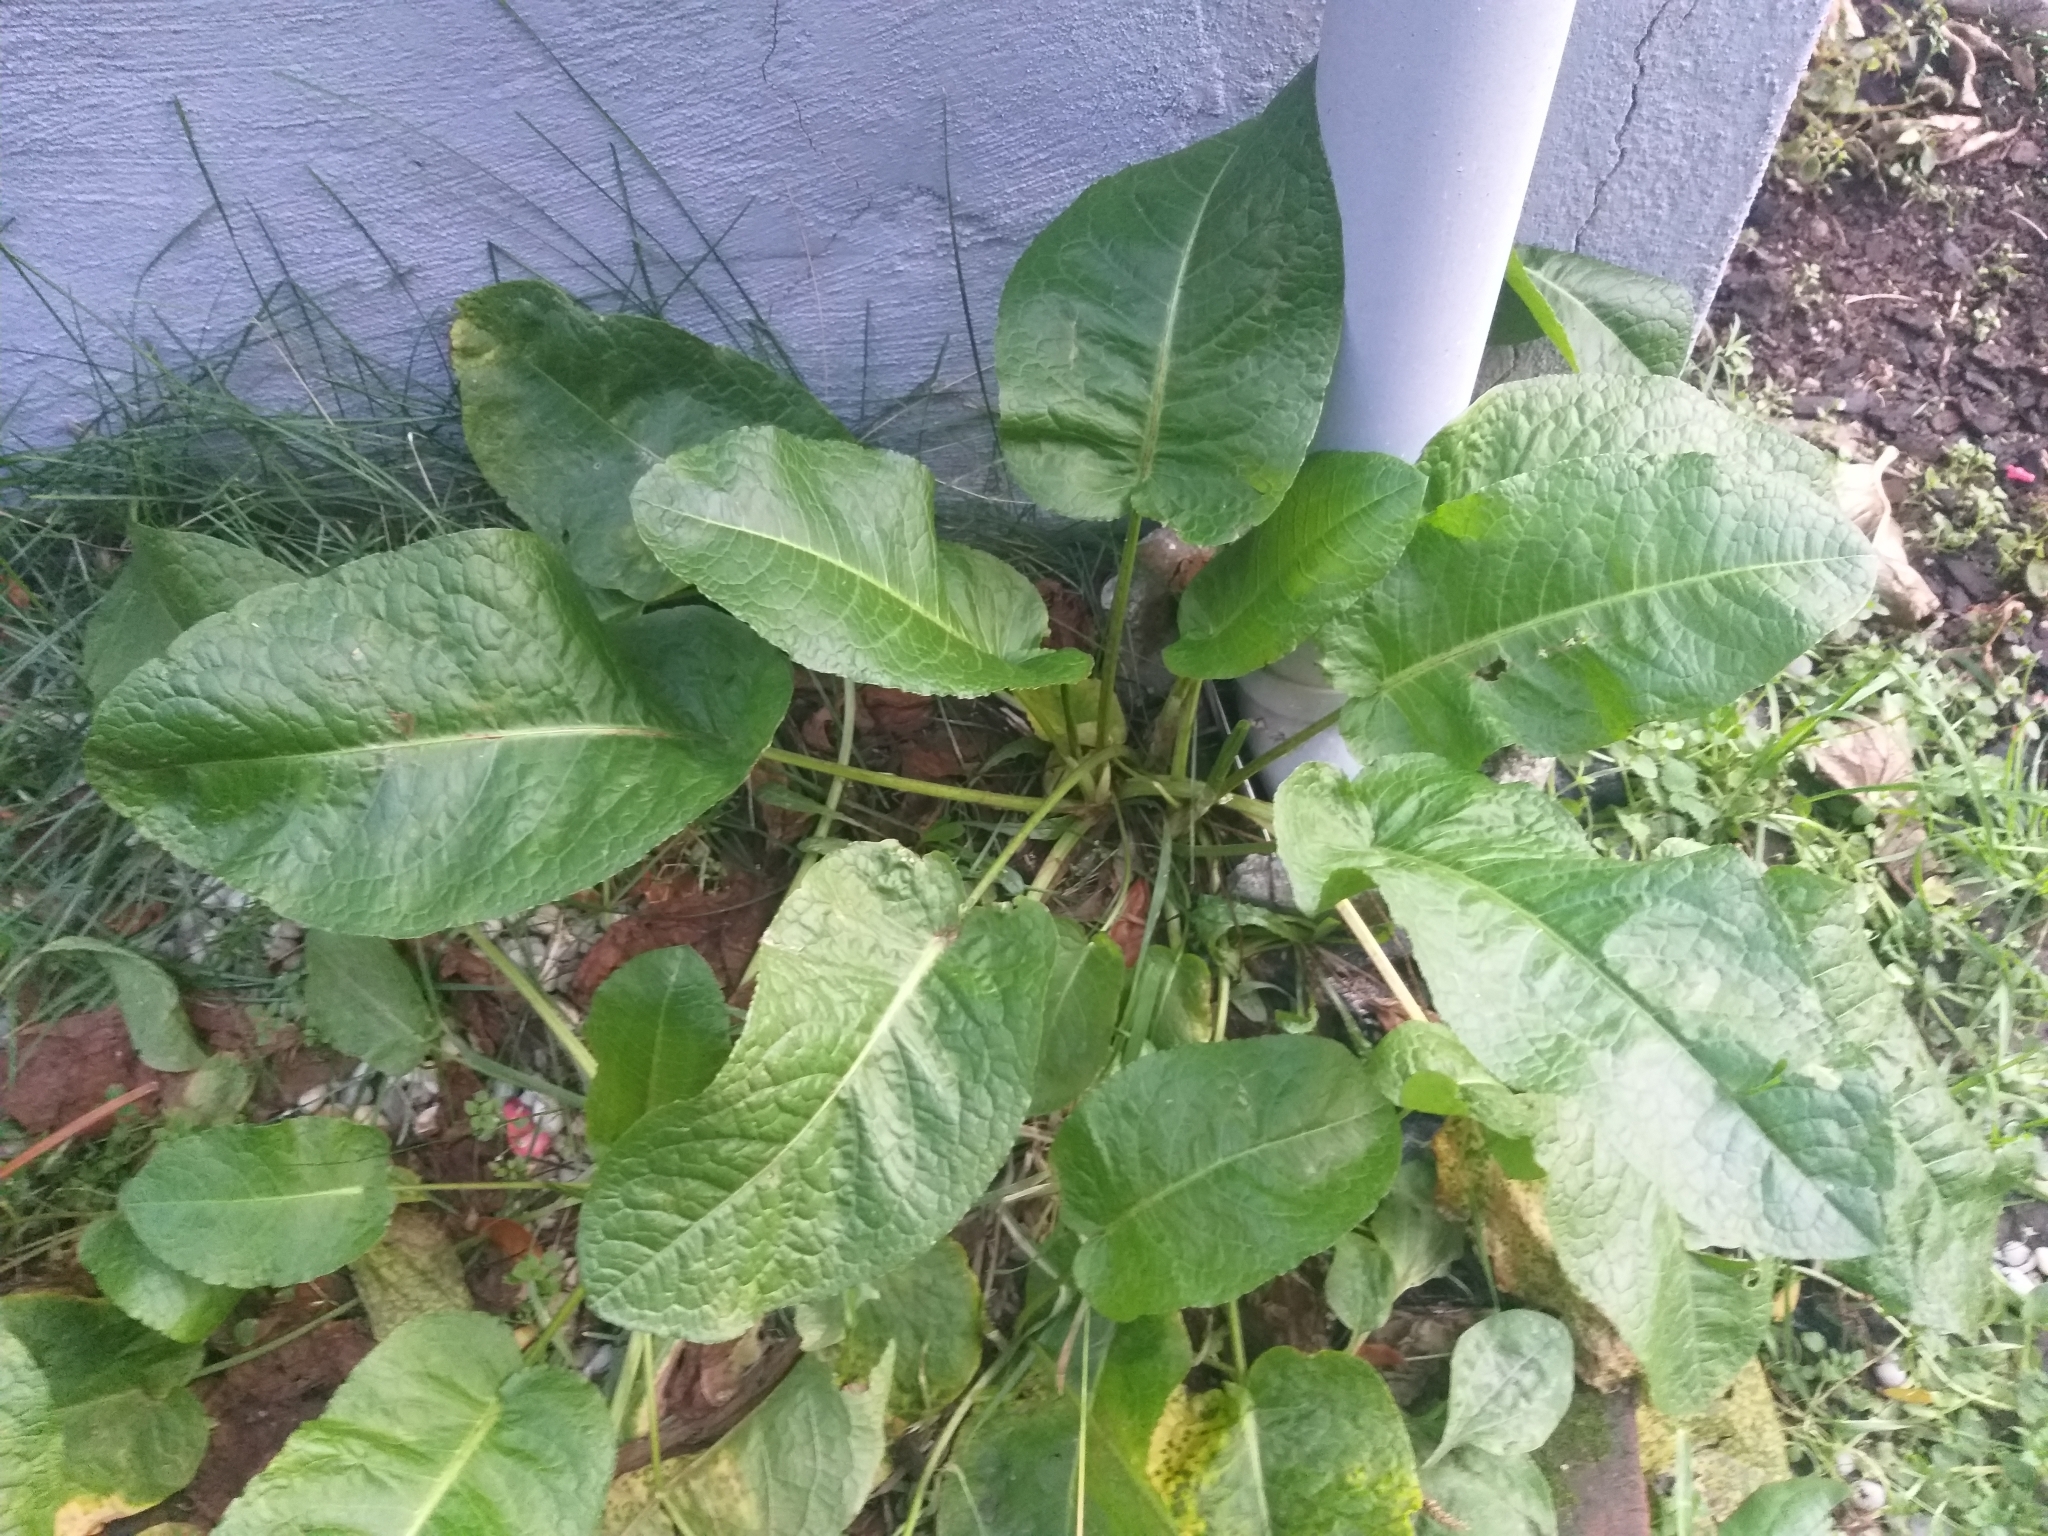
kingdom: Plantae
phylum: Tracheophyta
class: Magnoliopsida
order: Caryophyllales
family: Polygonaceae
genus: Rumex
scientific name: Rumex obtusifolius
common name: Bitter dock
